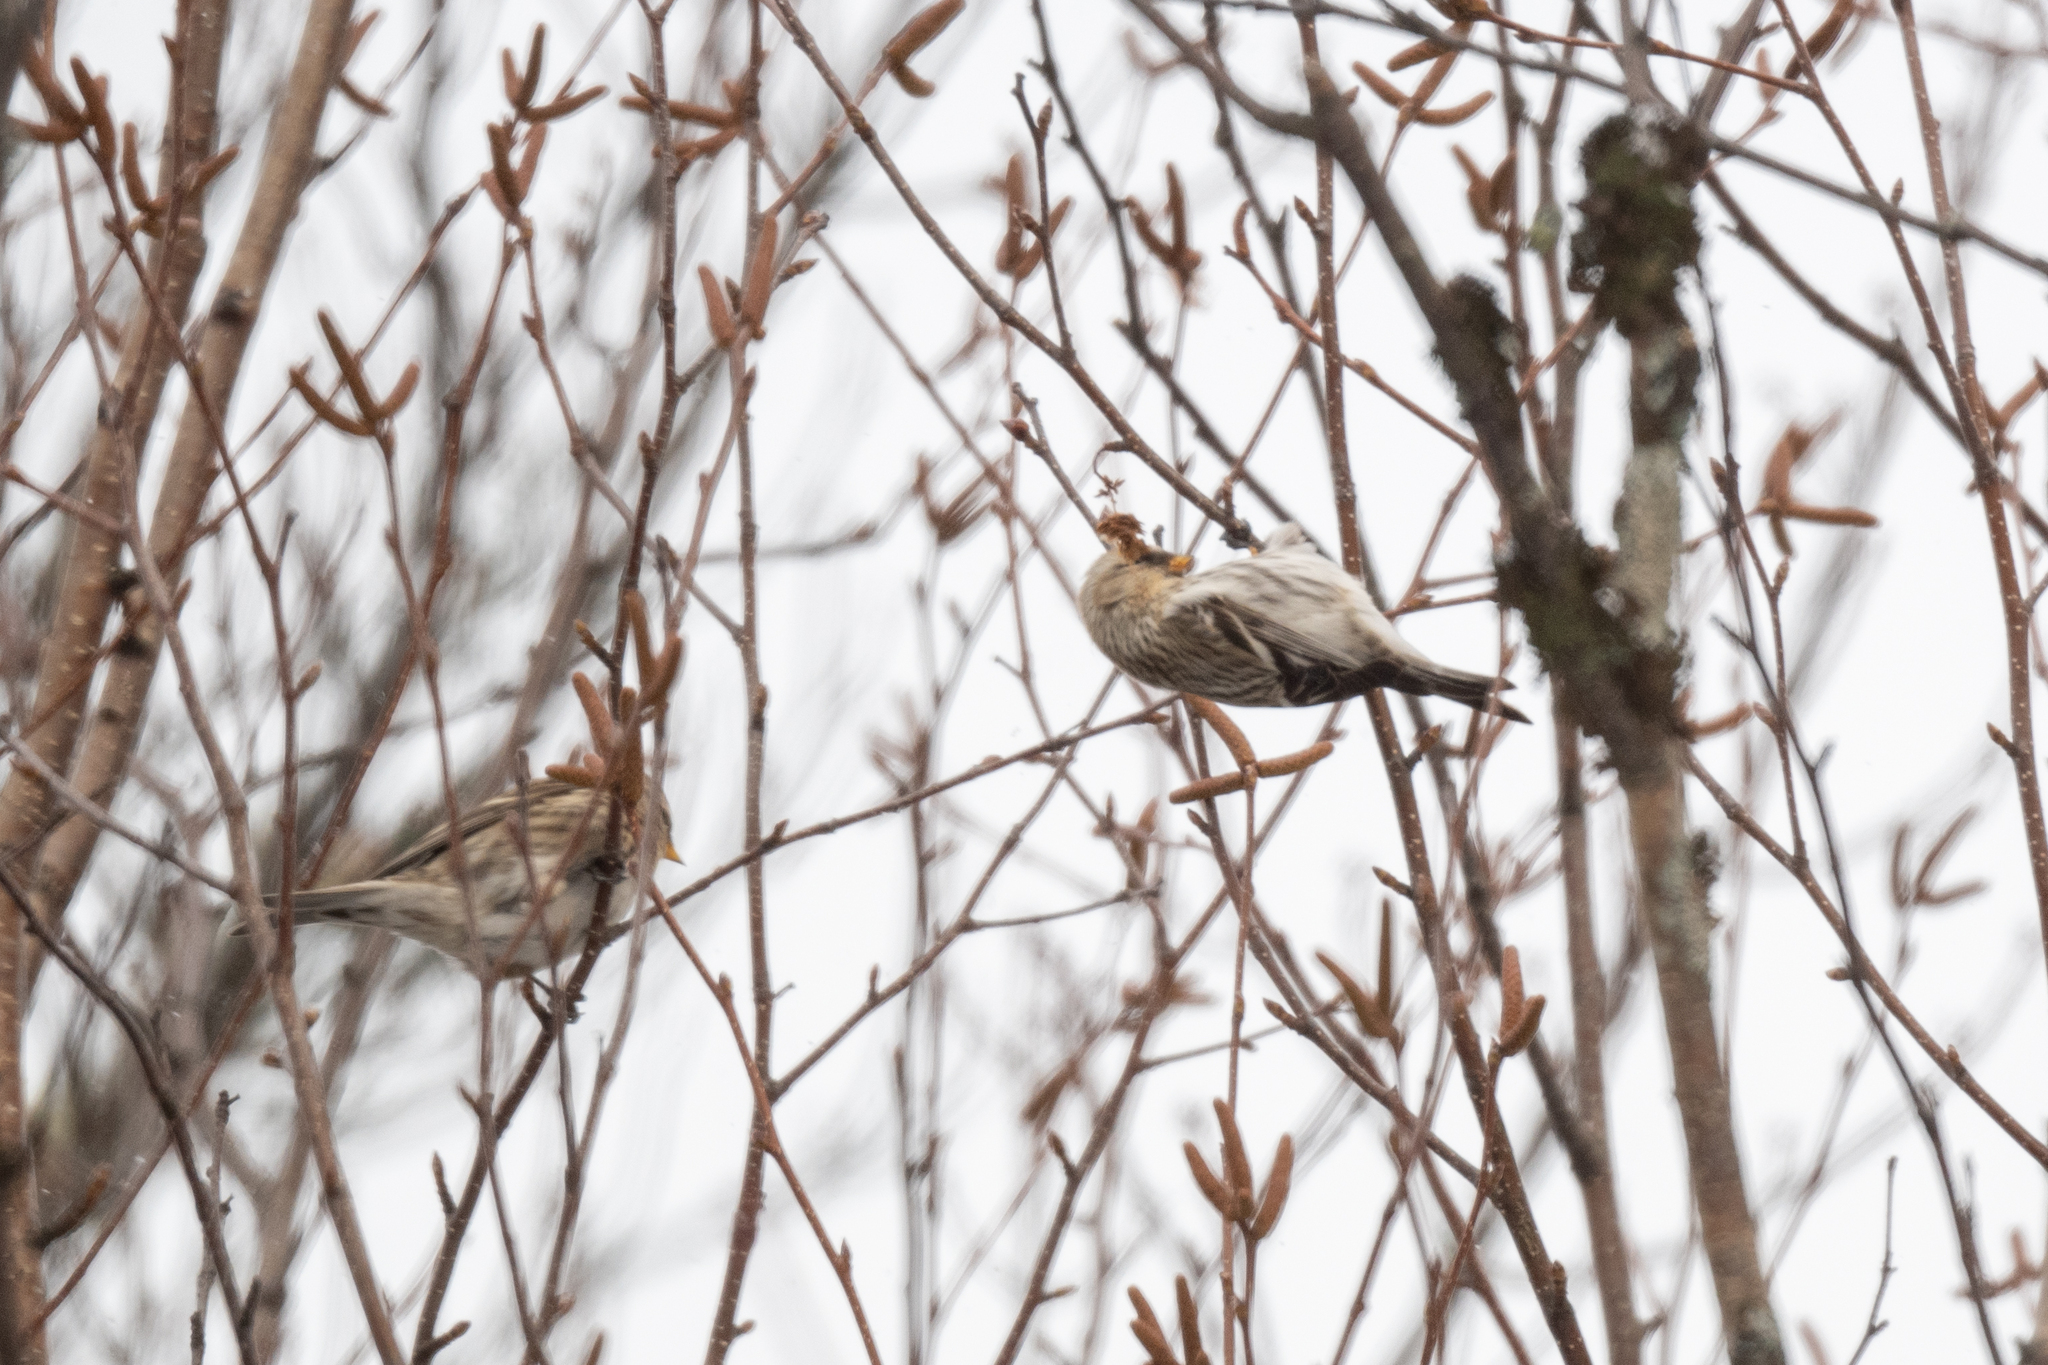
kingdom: Animalia
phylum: Chordata
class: Aves
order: Passeriformes
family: Fringillidae
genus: Acanthis
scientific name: Acanthis flammea
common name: Common redpoll
